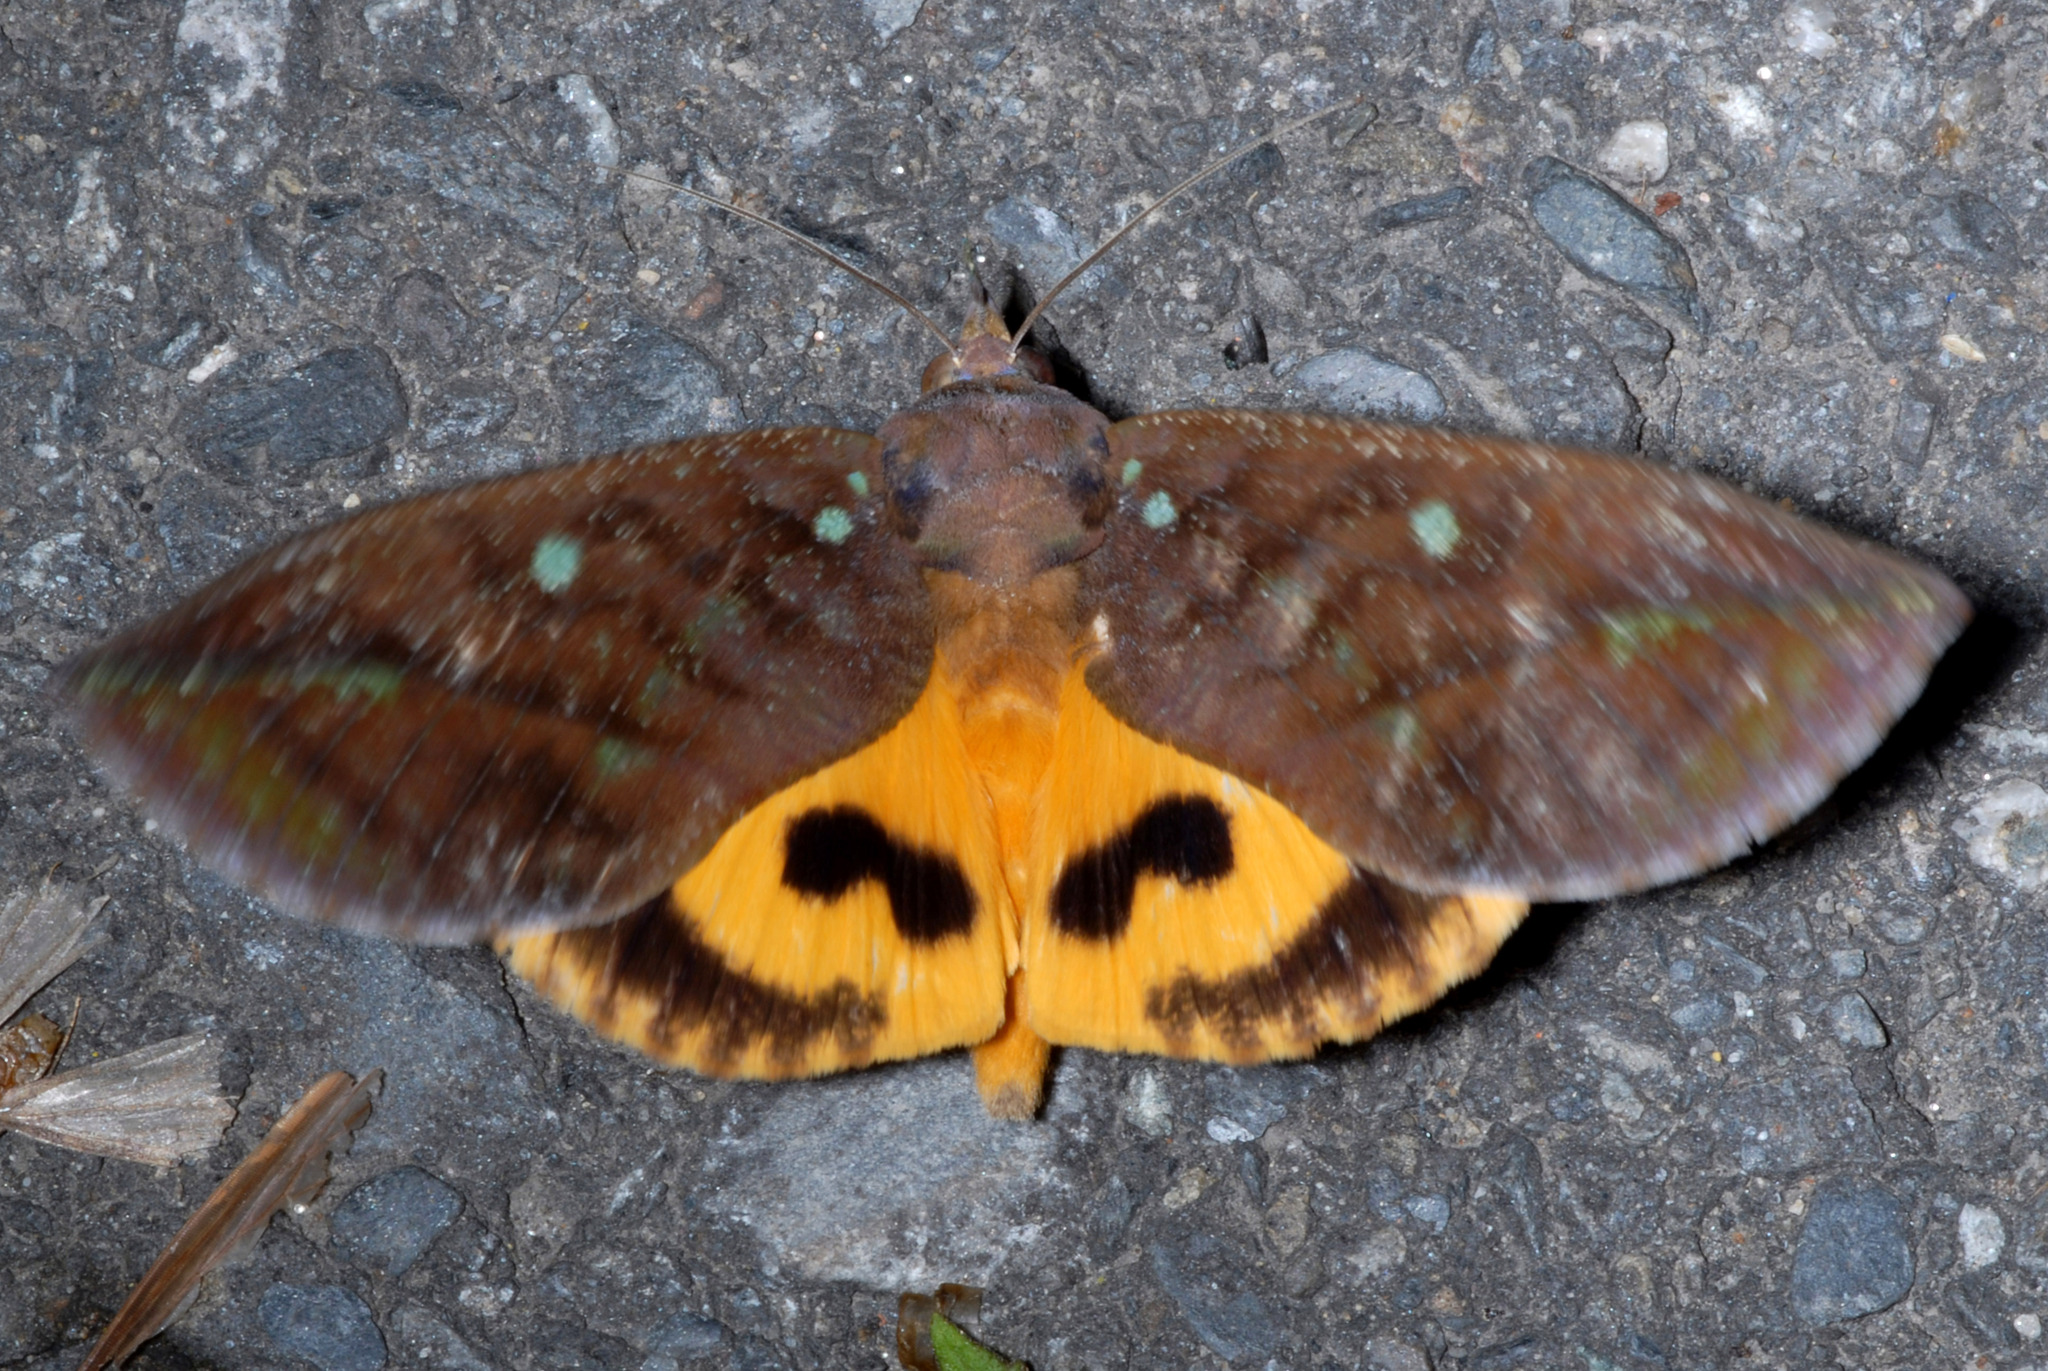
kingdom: Animalia
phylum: Arthropoda
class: Insecta
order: Lepidoptera
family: Erebidae
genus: Eudocima
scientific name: Eudocima tyrannus
